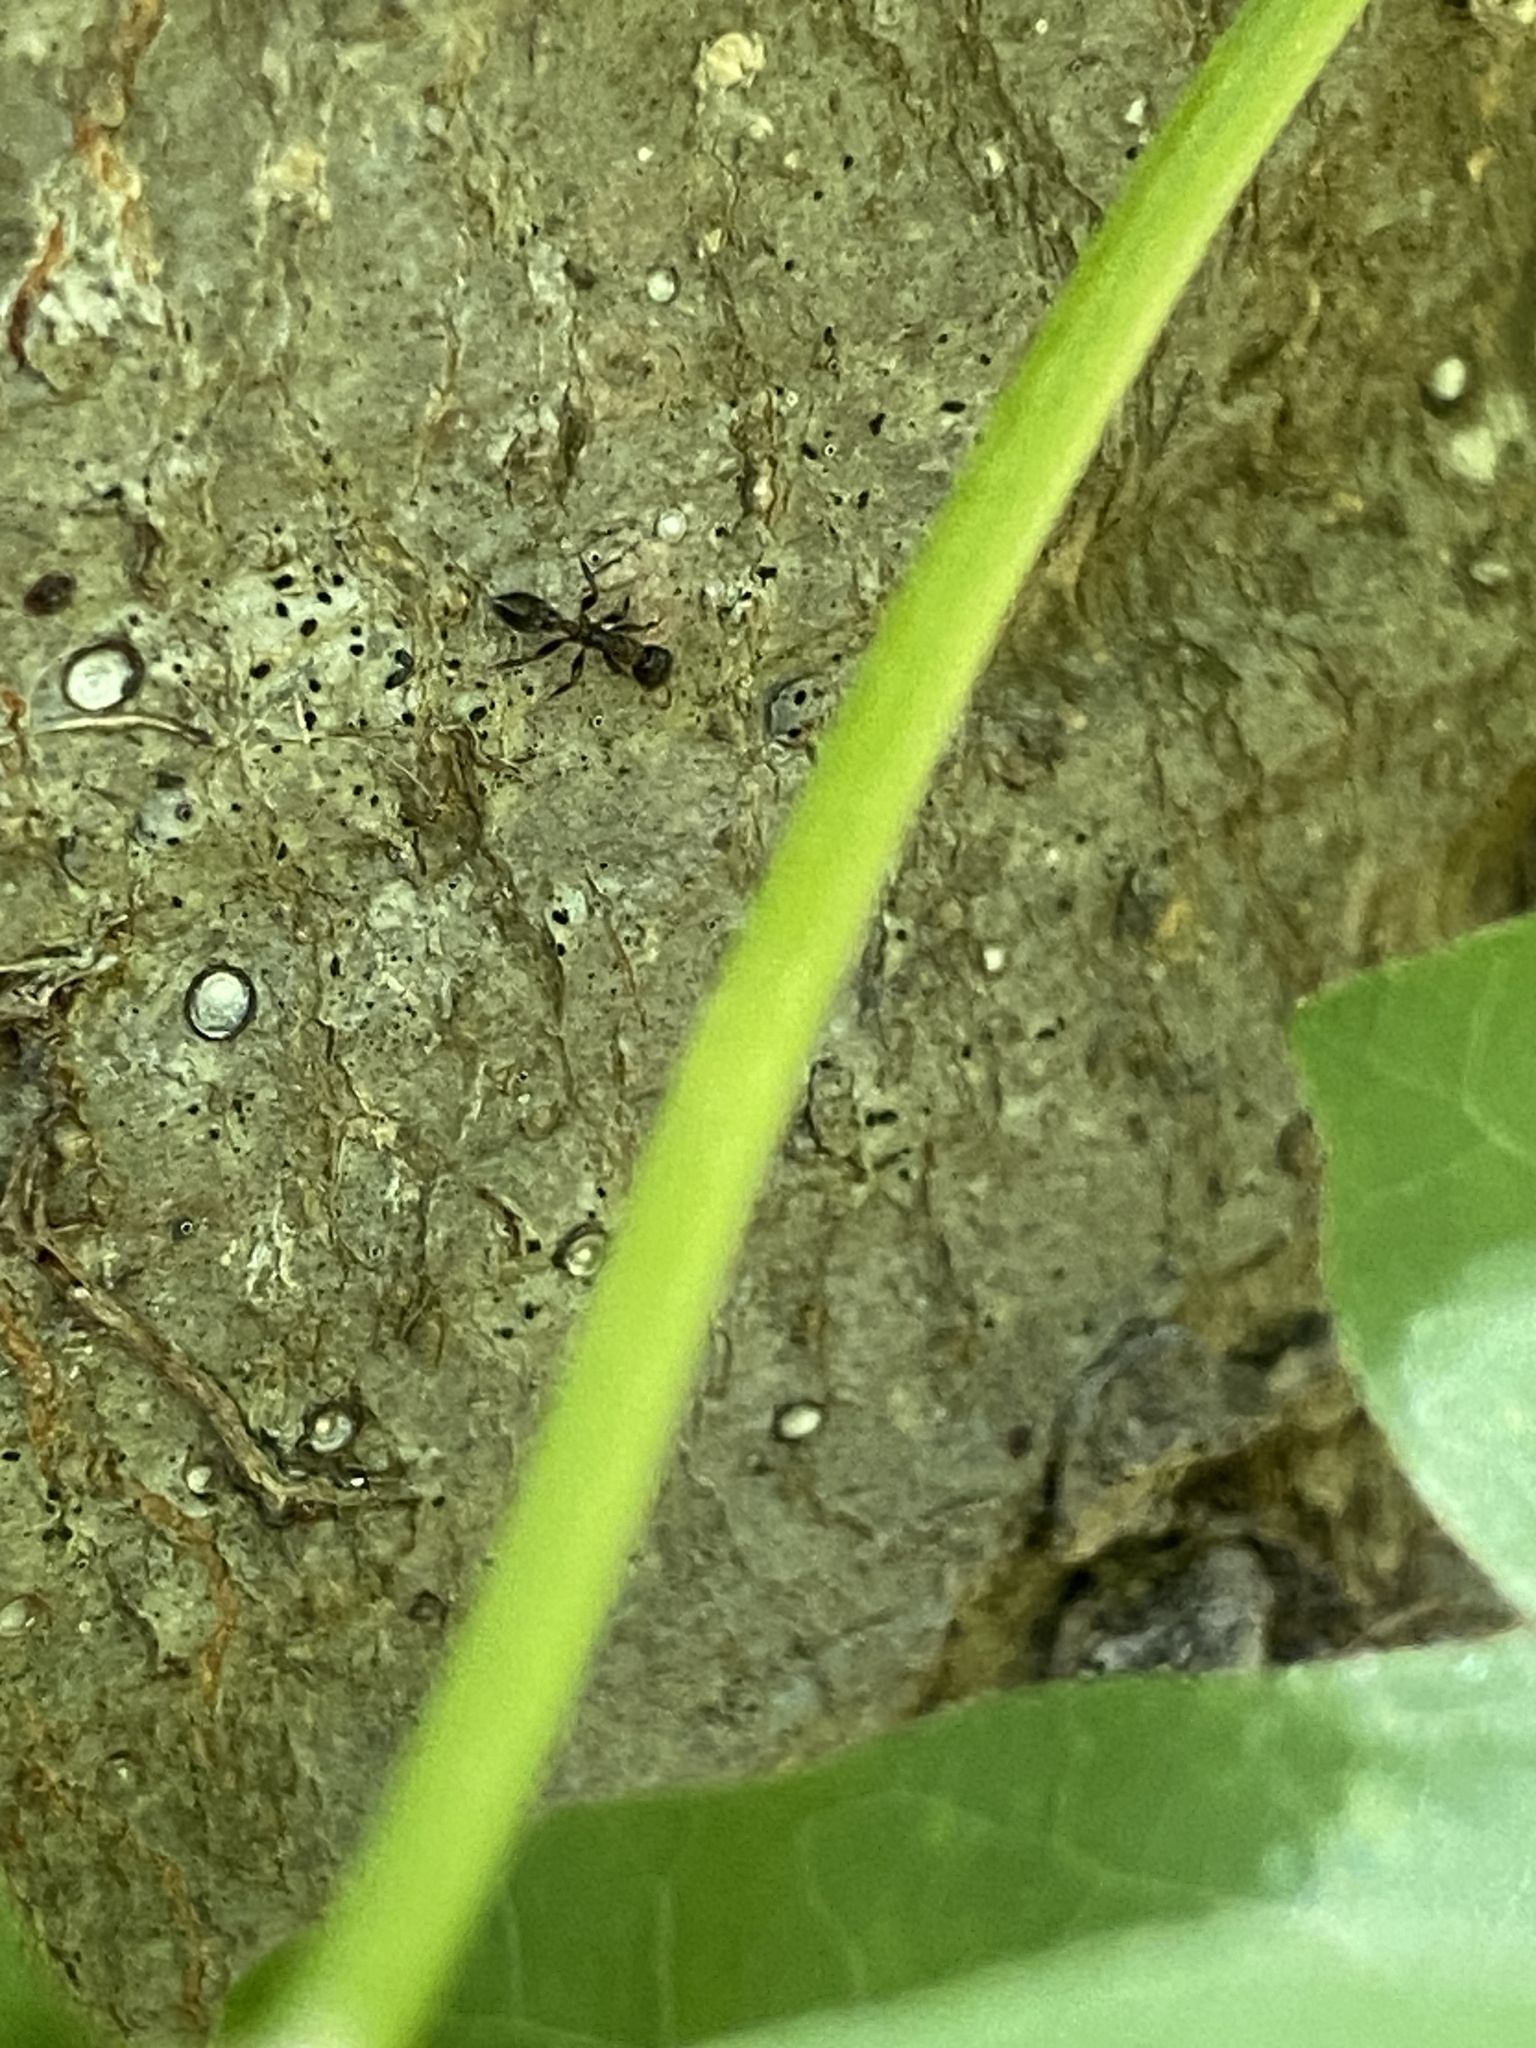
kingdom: Animalia
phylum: Arthropoda
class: Insecta
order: Hymenoptera
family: Formicidae
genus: Pseudomyrmex
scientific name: Pseudomyrmex ejectus
